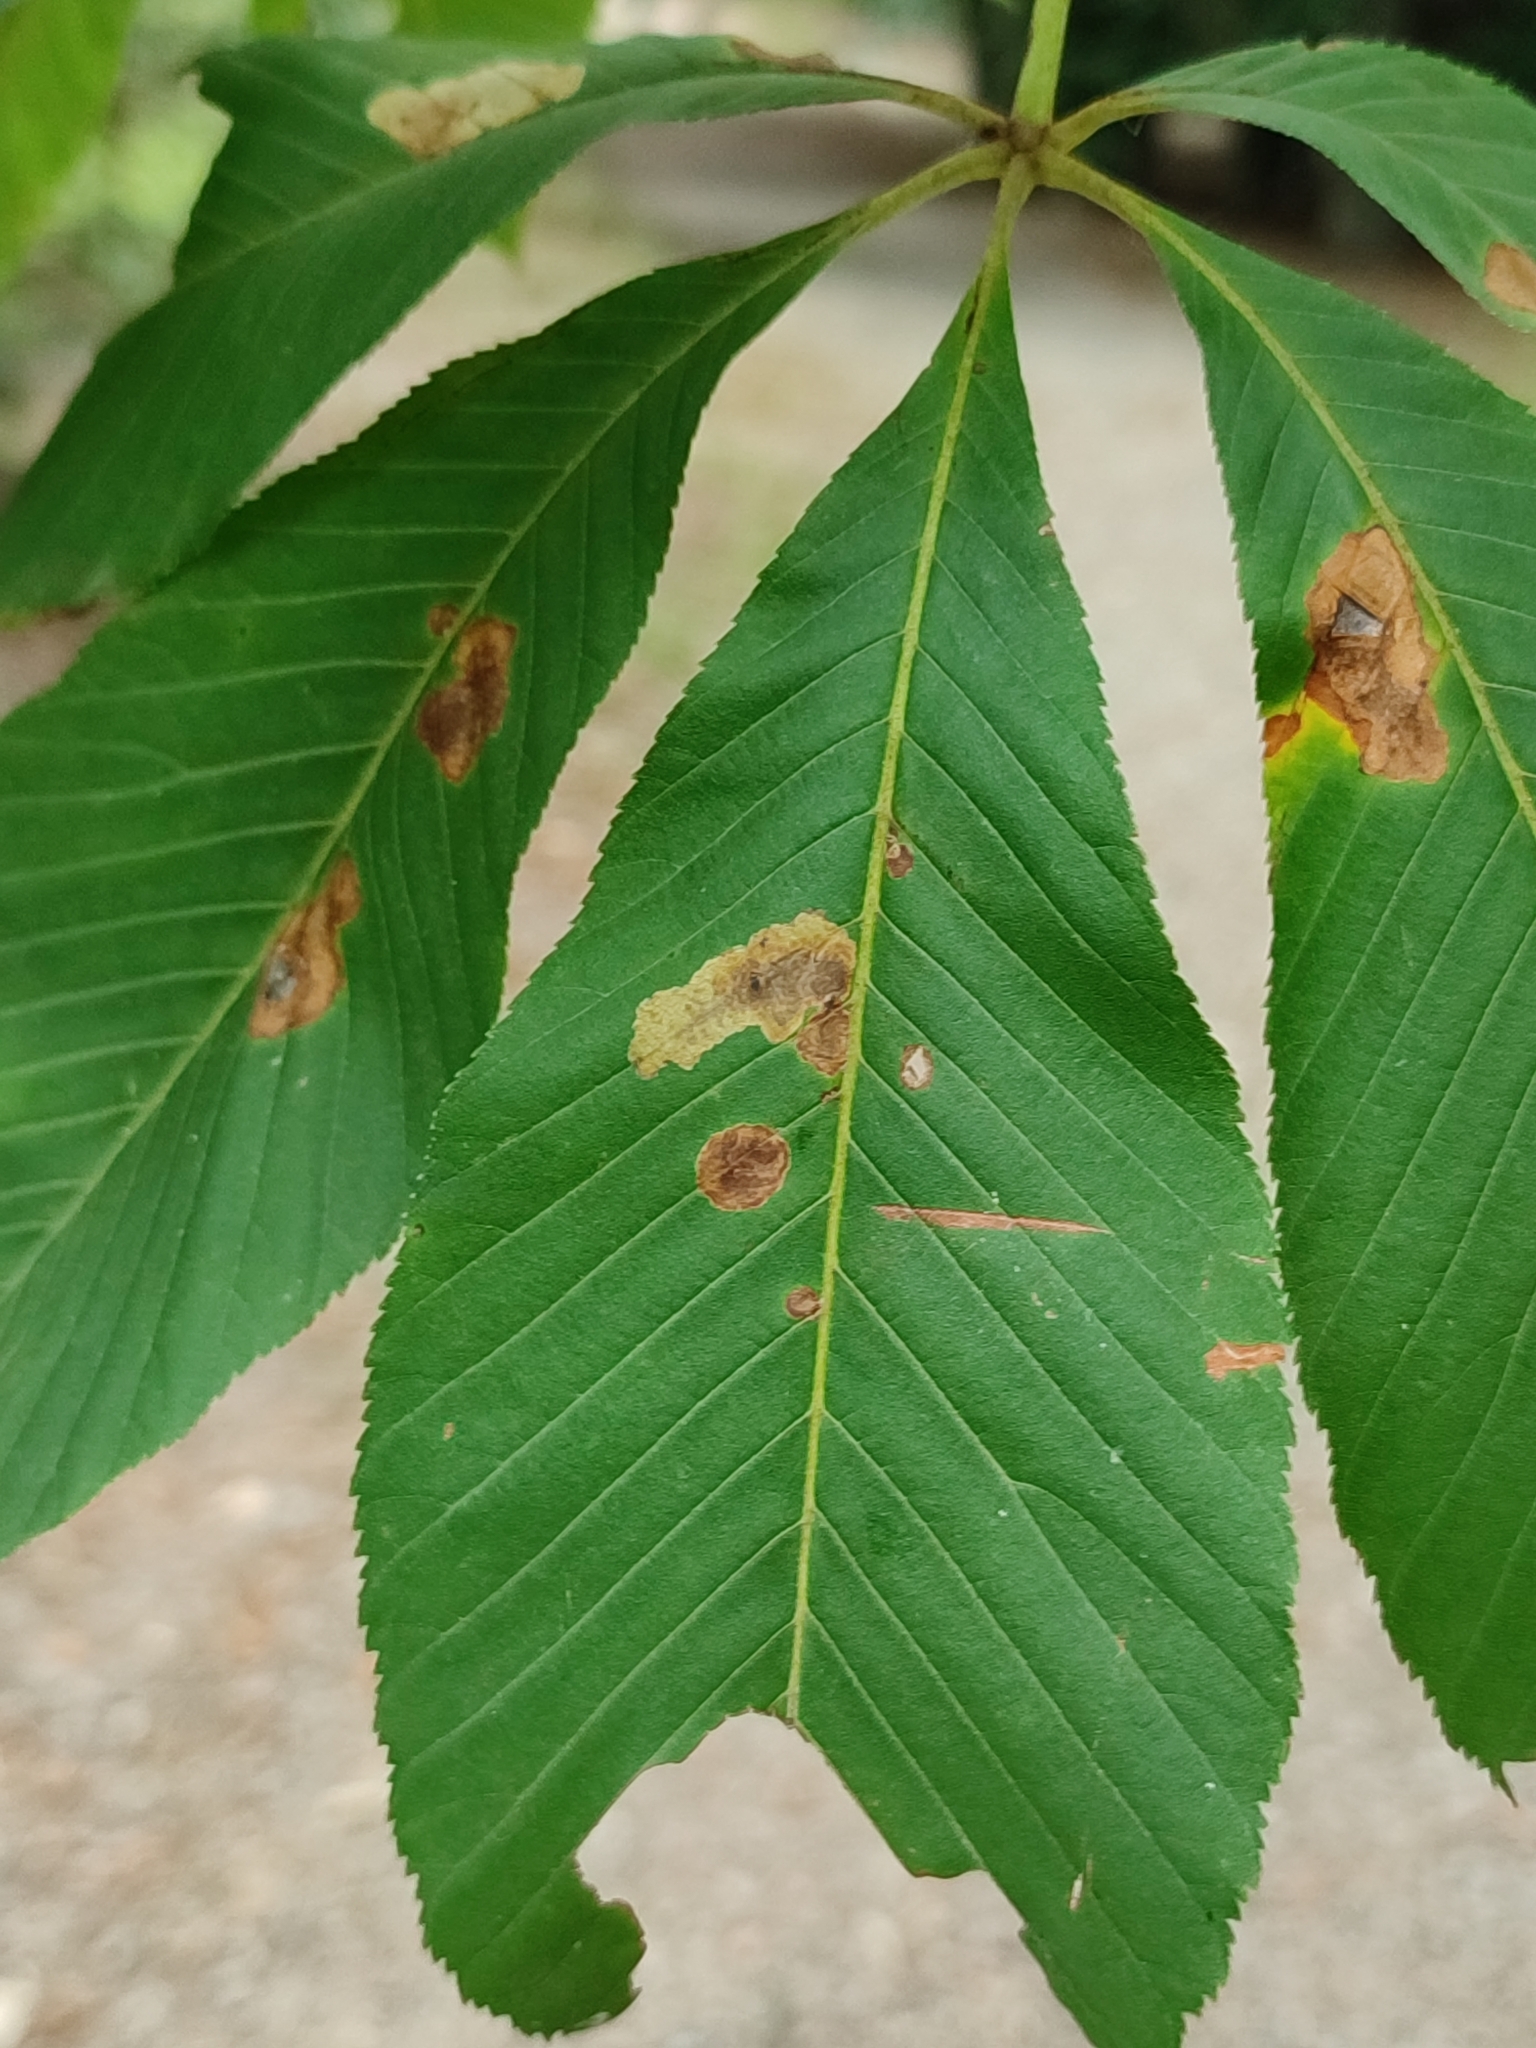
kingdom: Animalia
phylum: Arthropoda
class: Insecta
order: Lepidoptera
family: Gracillariidae
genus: Cameraria
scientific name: Cameraria ohridella
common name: Horse-chestnut leaf-miner
